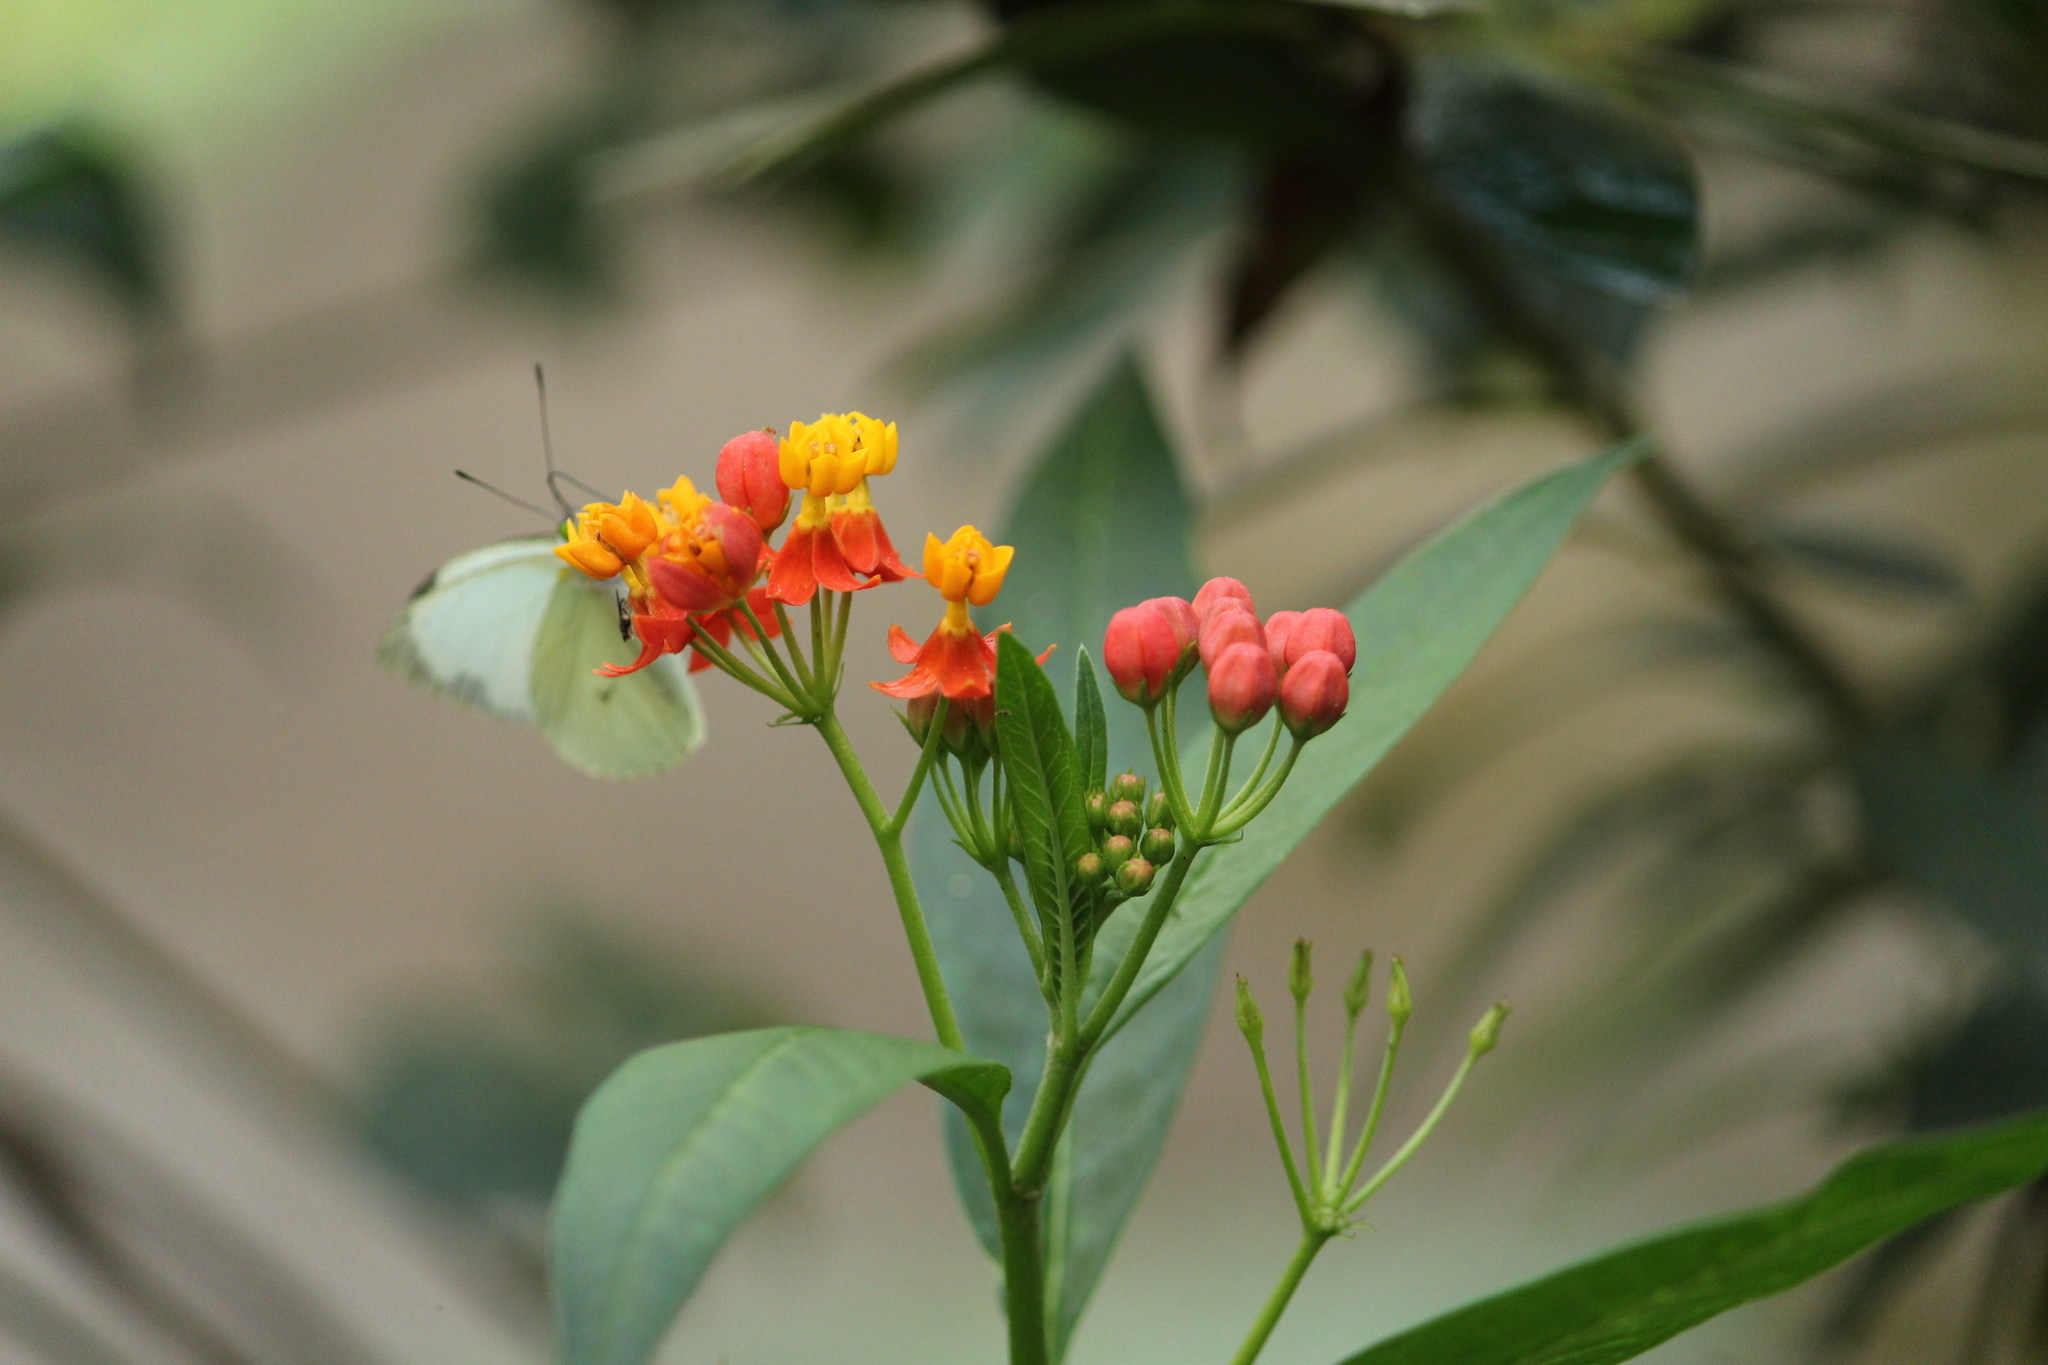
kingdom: Plantae
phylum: Tracheophyta
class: Magnoliopsida
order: Gentianales
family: Apocynaceae
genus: Asclepias
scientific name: Asclepias curassavica
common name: Bloodflower
